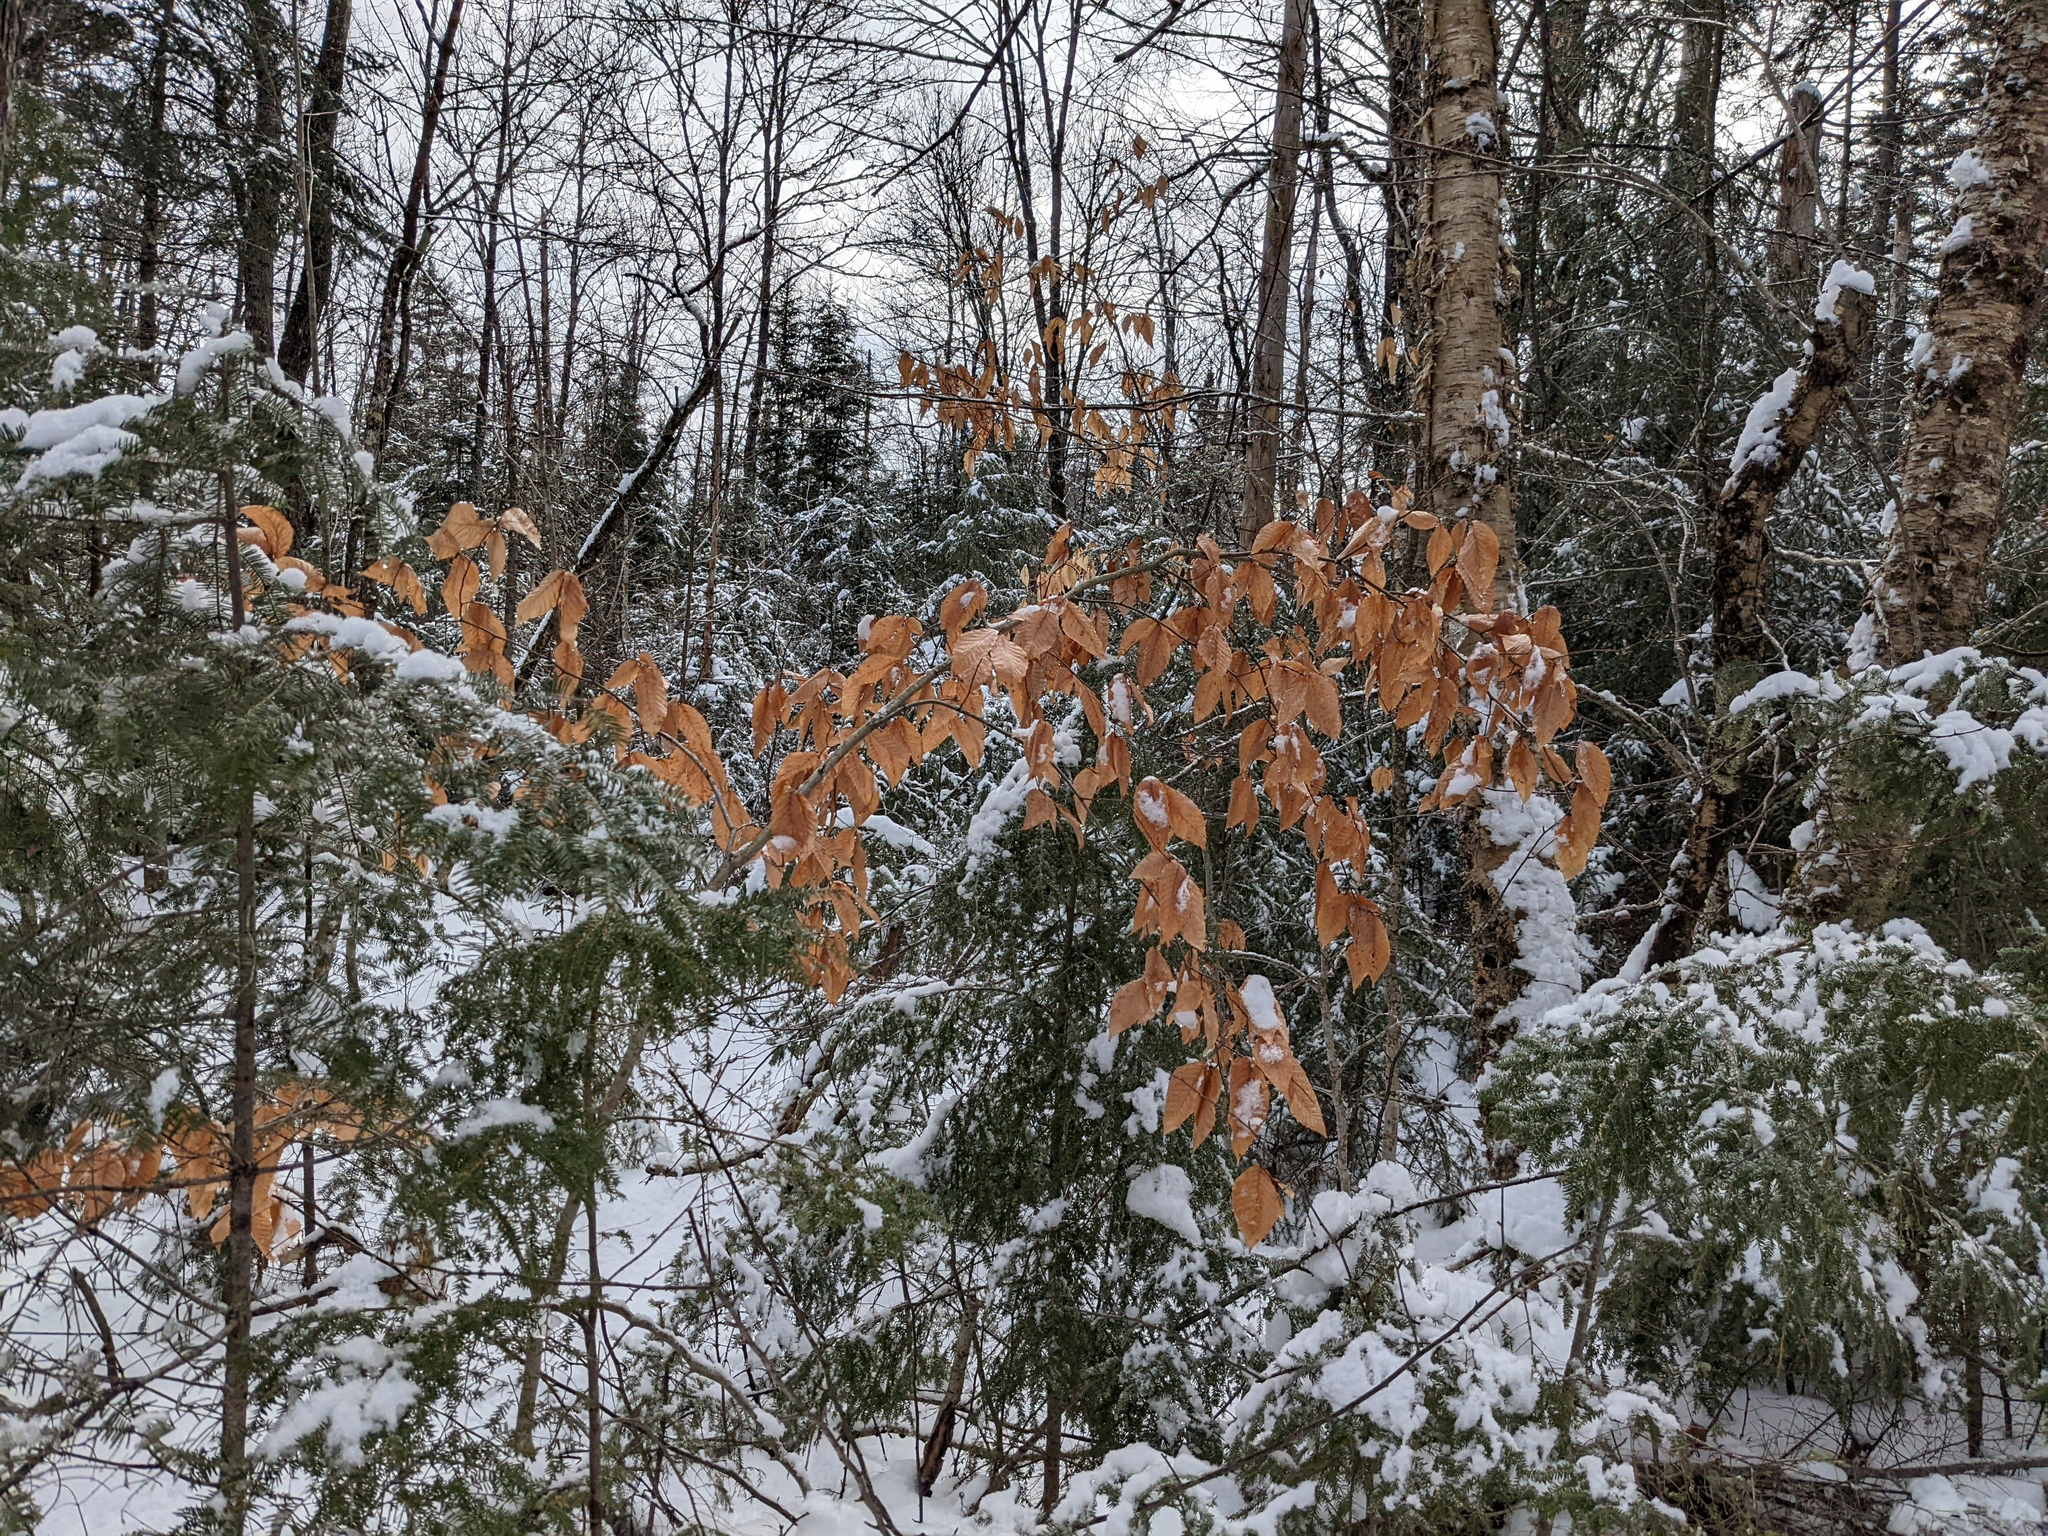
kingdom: Plantae
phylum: Tracheophyta
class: Magnoliopsida
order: Fagales
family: Fagaceae
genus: Fagus
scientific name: Fagus grandifolia
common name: American beech
